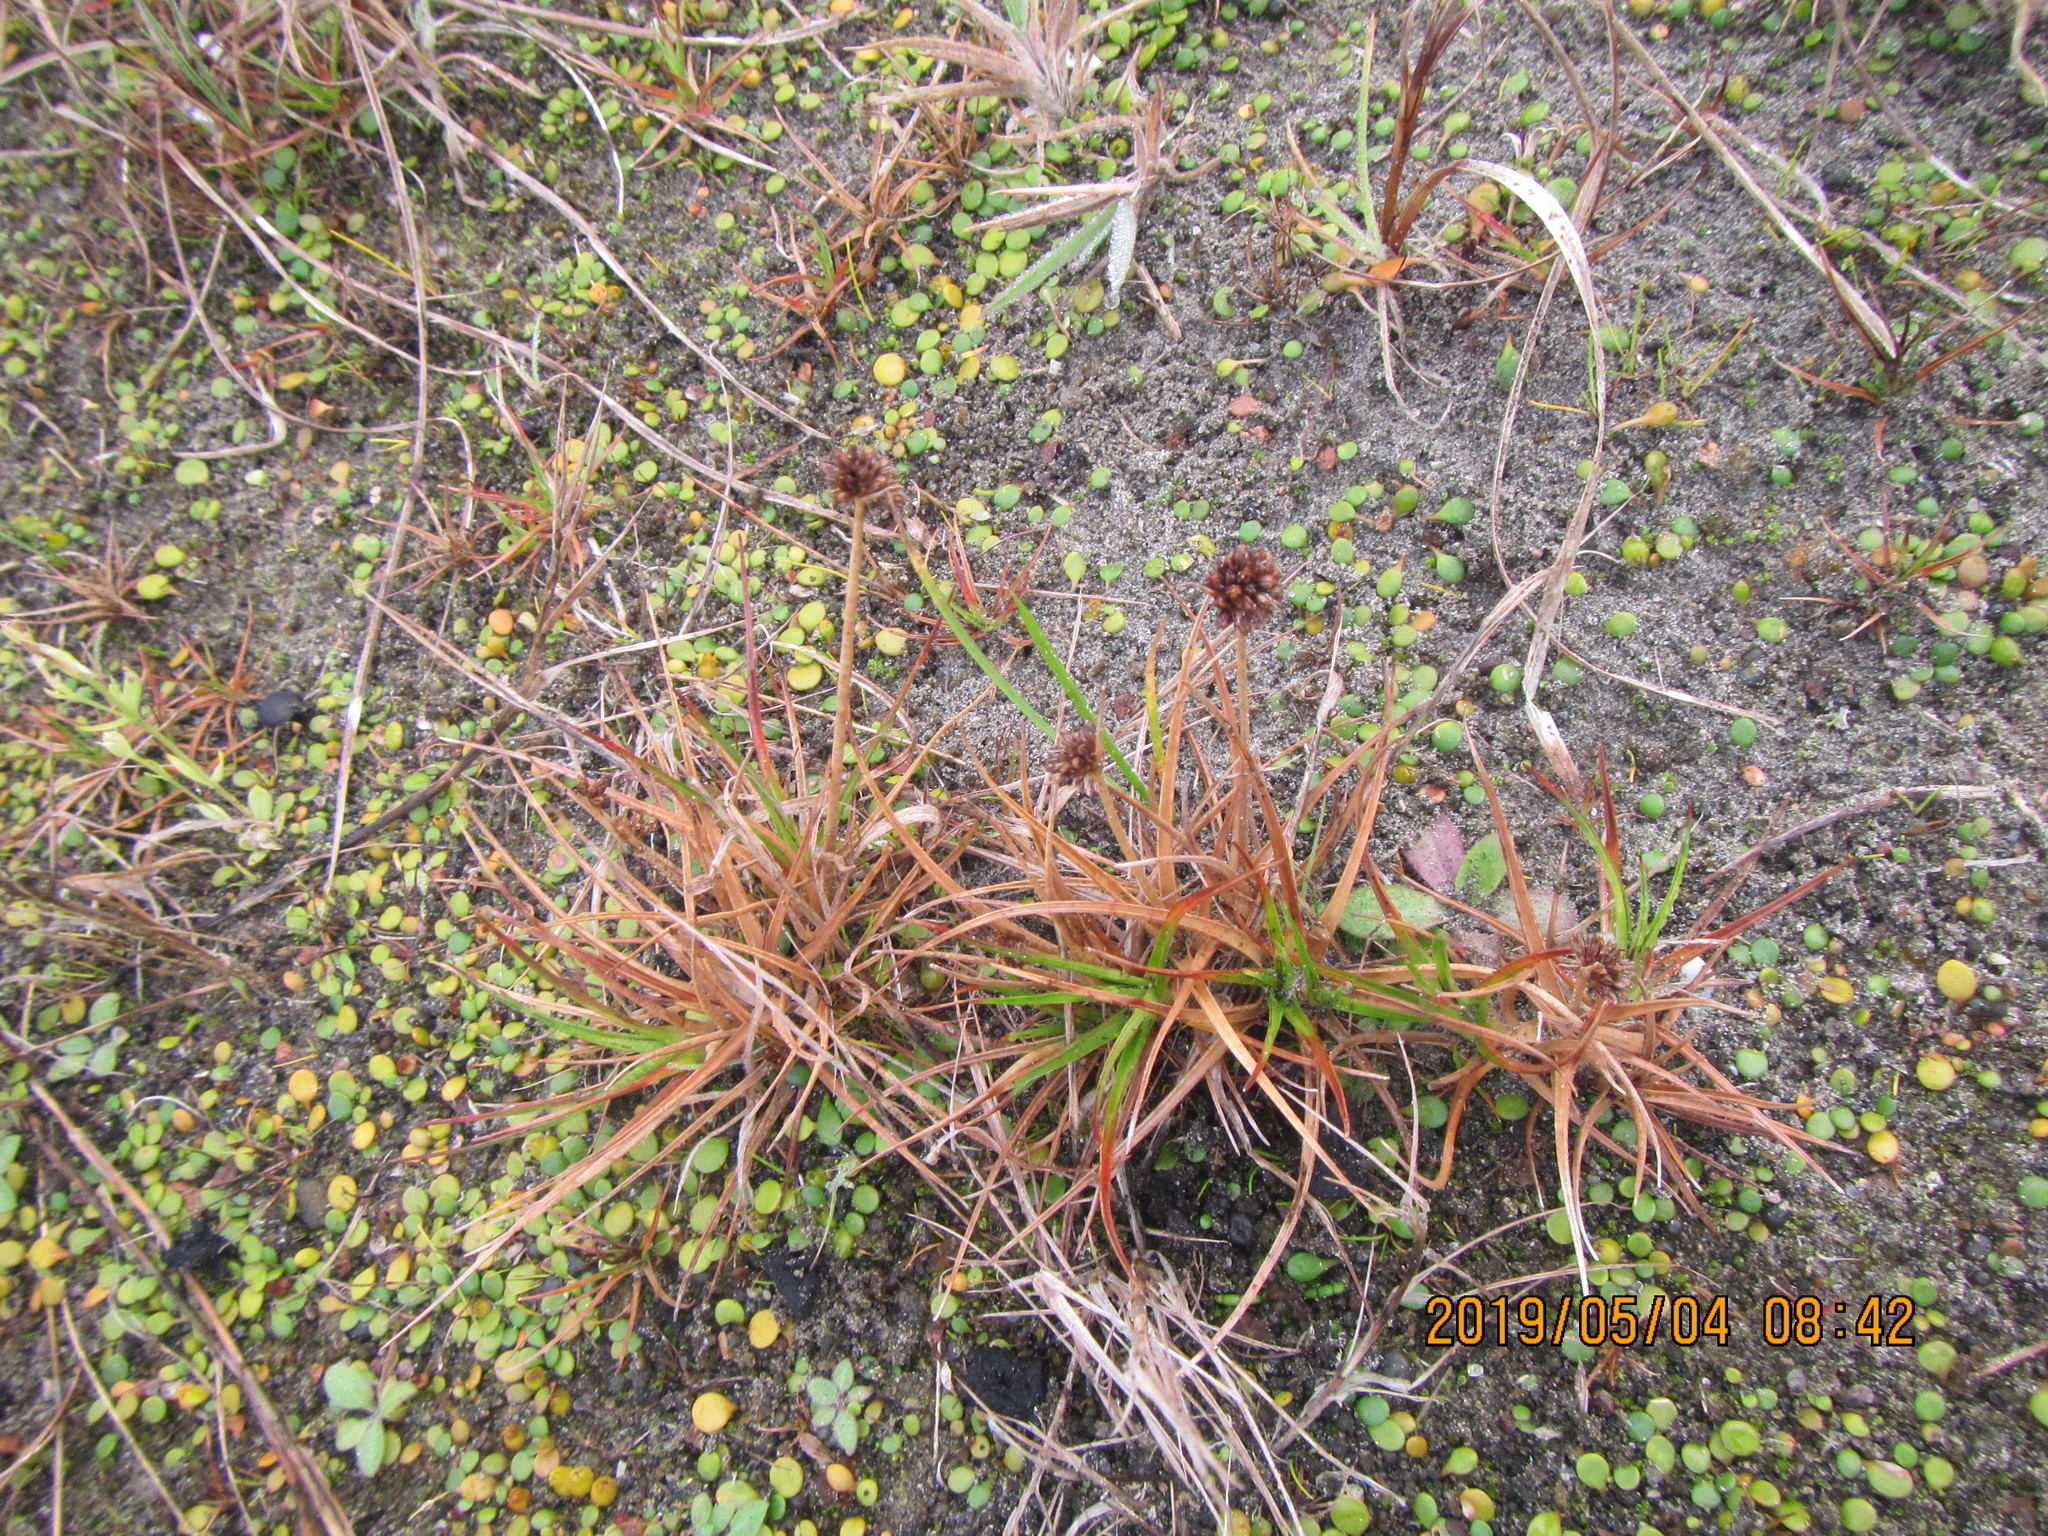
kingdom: Plantae
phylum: Tracheophyta
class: Liliopsida
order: Poales
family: Juncaceae
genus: Juncus
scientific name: Juncus caespiticius
